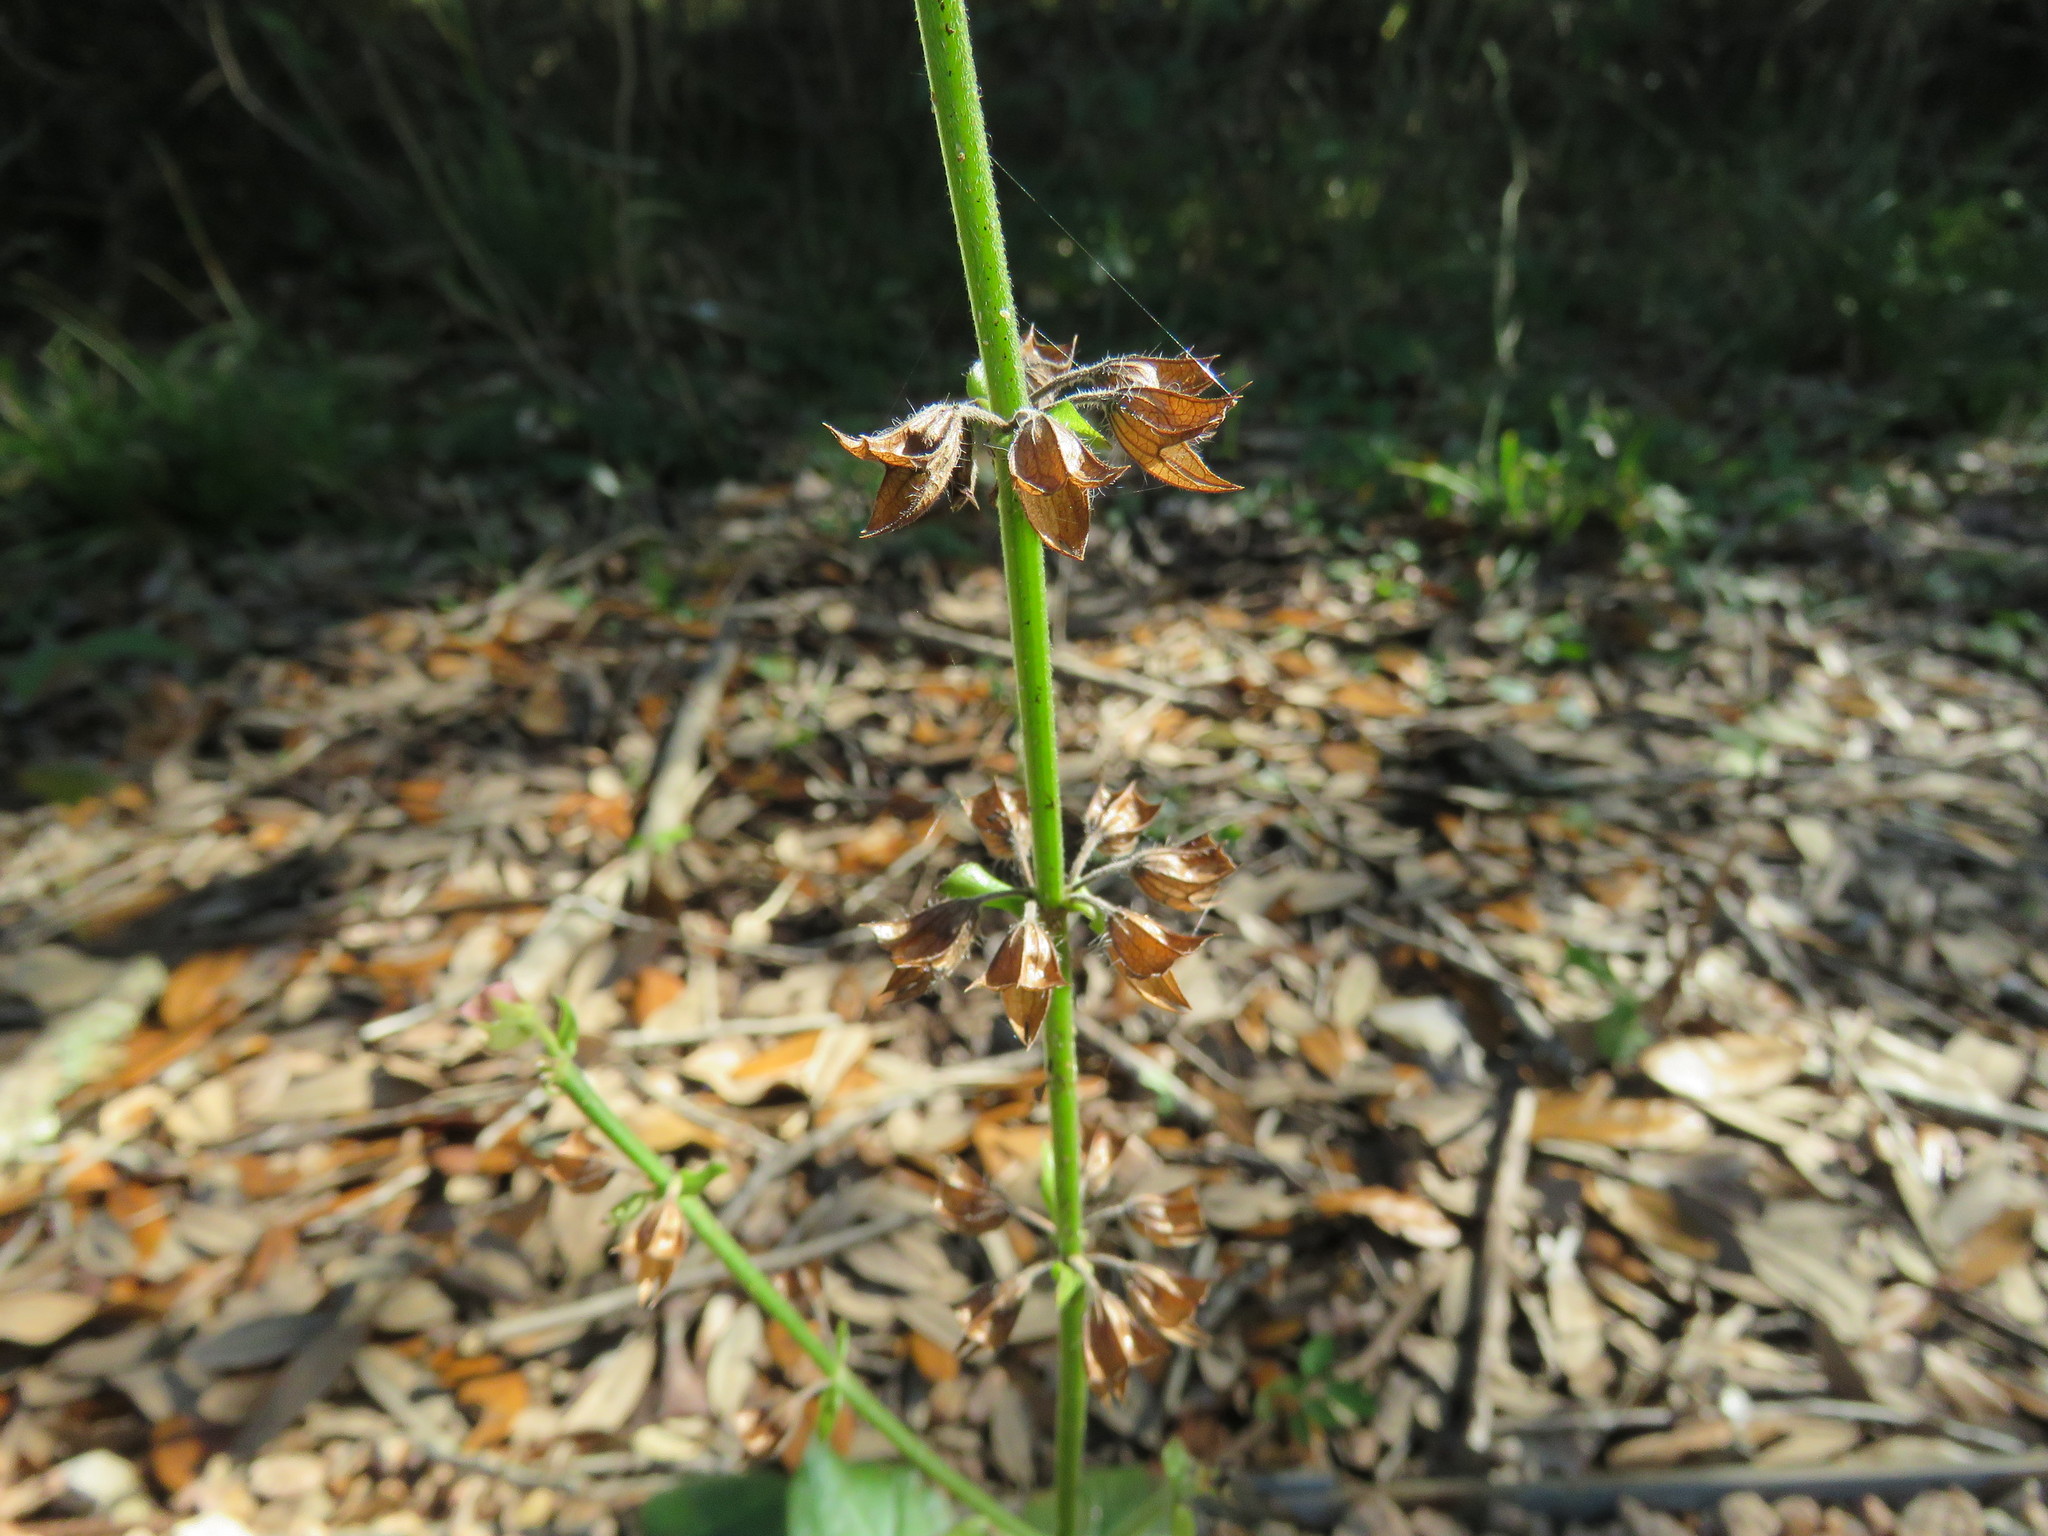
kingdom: Plantae
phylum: Tracheophyta
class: Magnoliopsida
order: Lamiales
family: Lamiaceae
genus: Salvia
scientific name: Salvia lyrata
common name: Cancerweed
